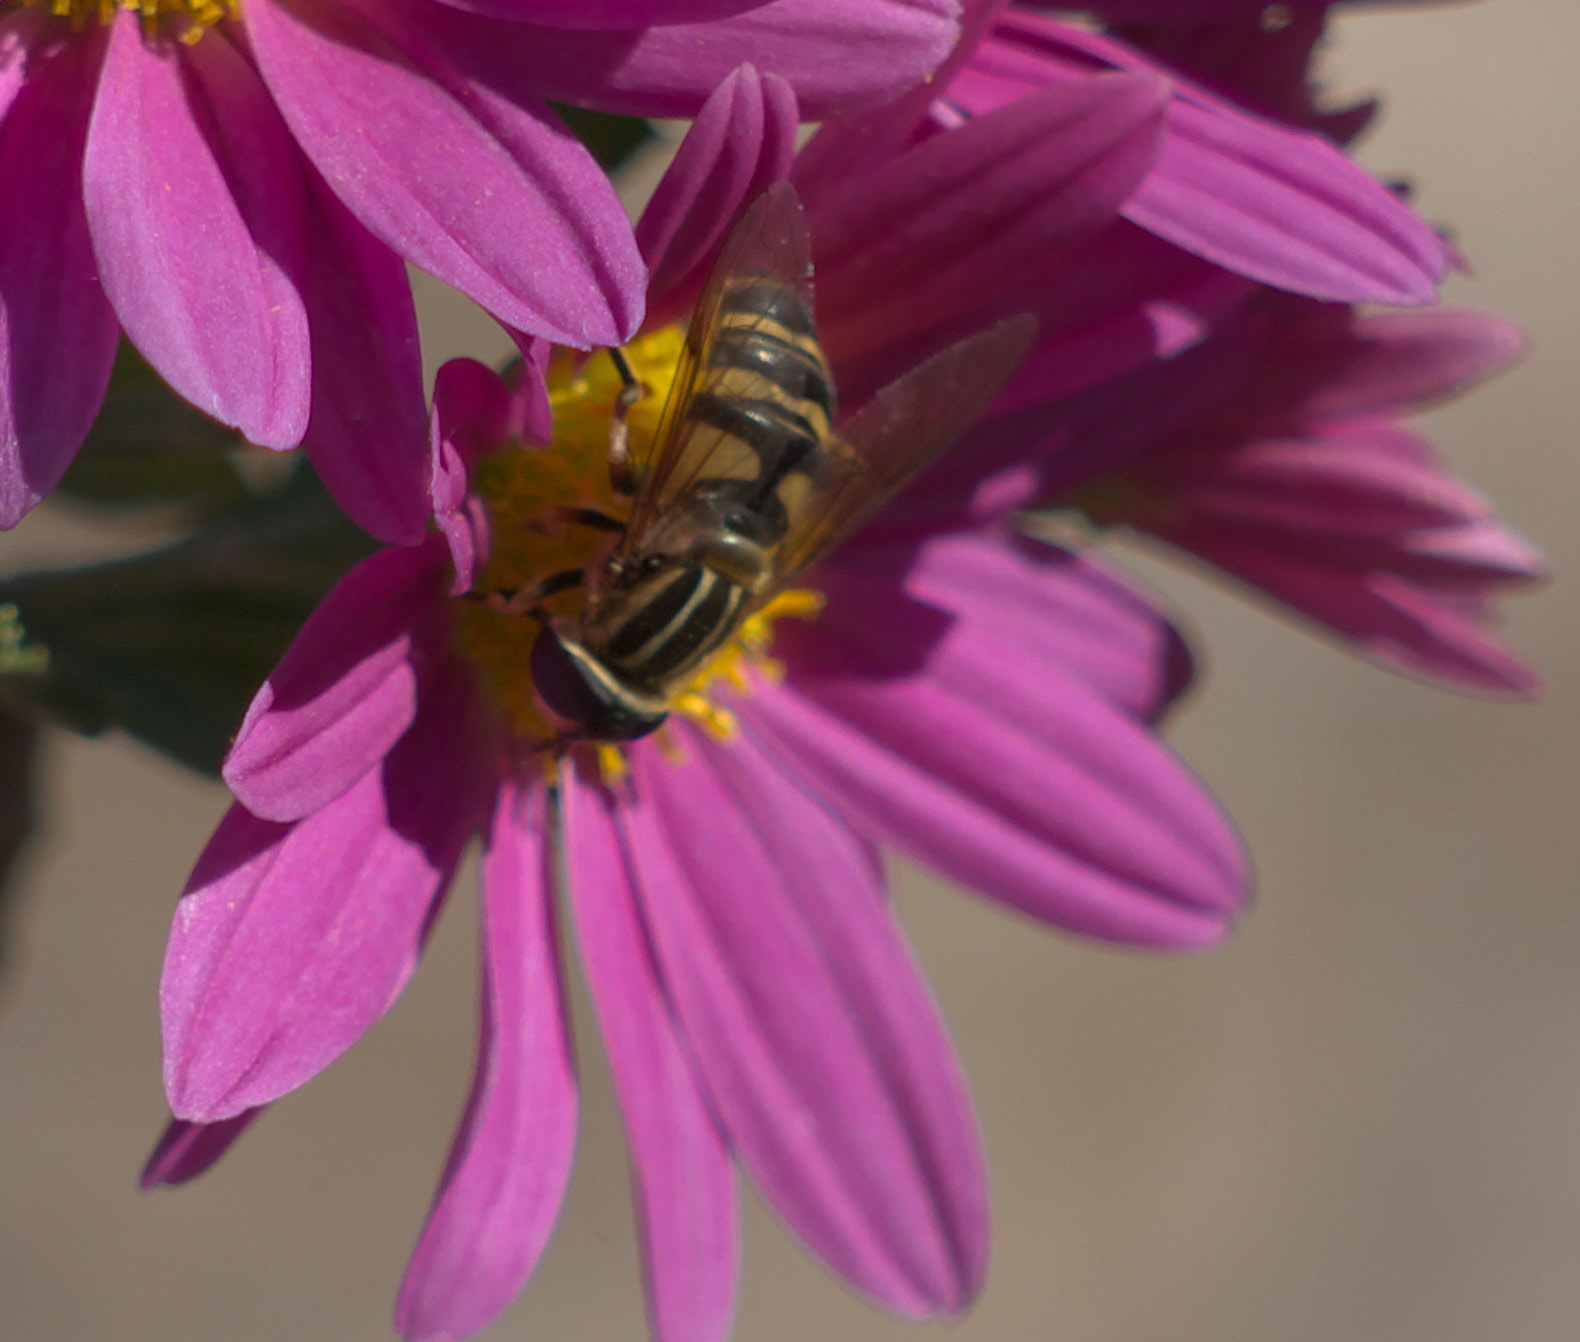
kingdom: Animalia
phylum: Arthropoda
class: Insecta
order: Diptera
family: Syrphidae
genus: Helophilus
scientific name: Helophilus fasciatus
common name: Narrow-headed marsh fly
